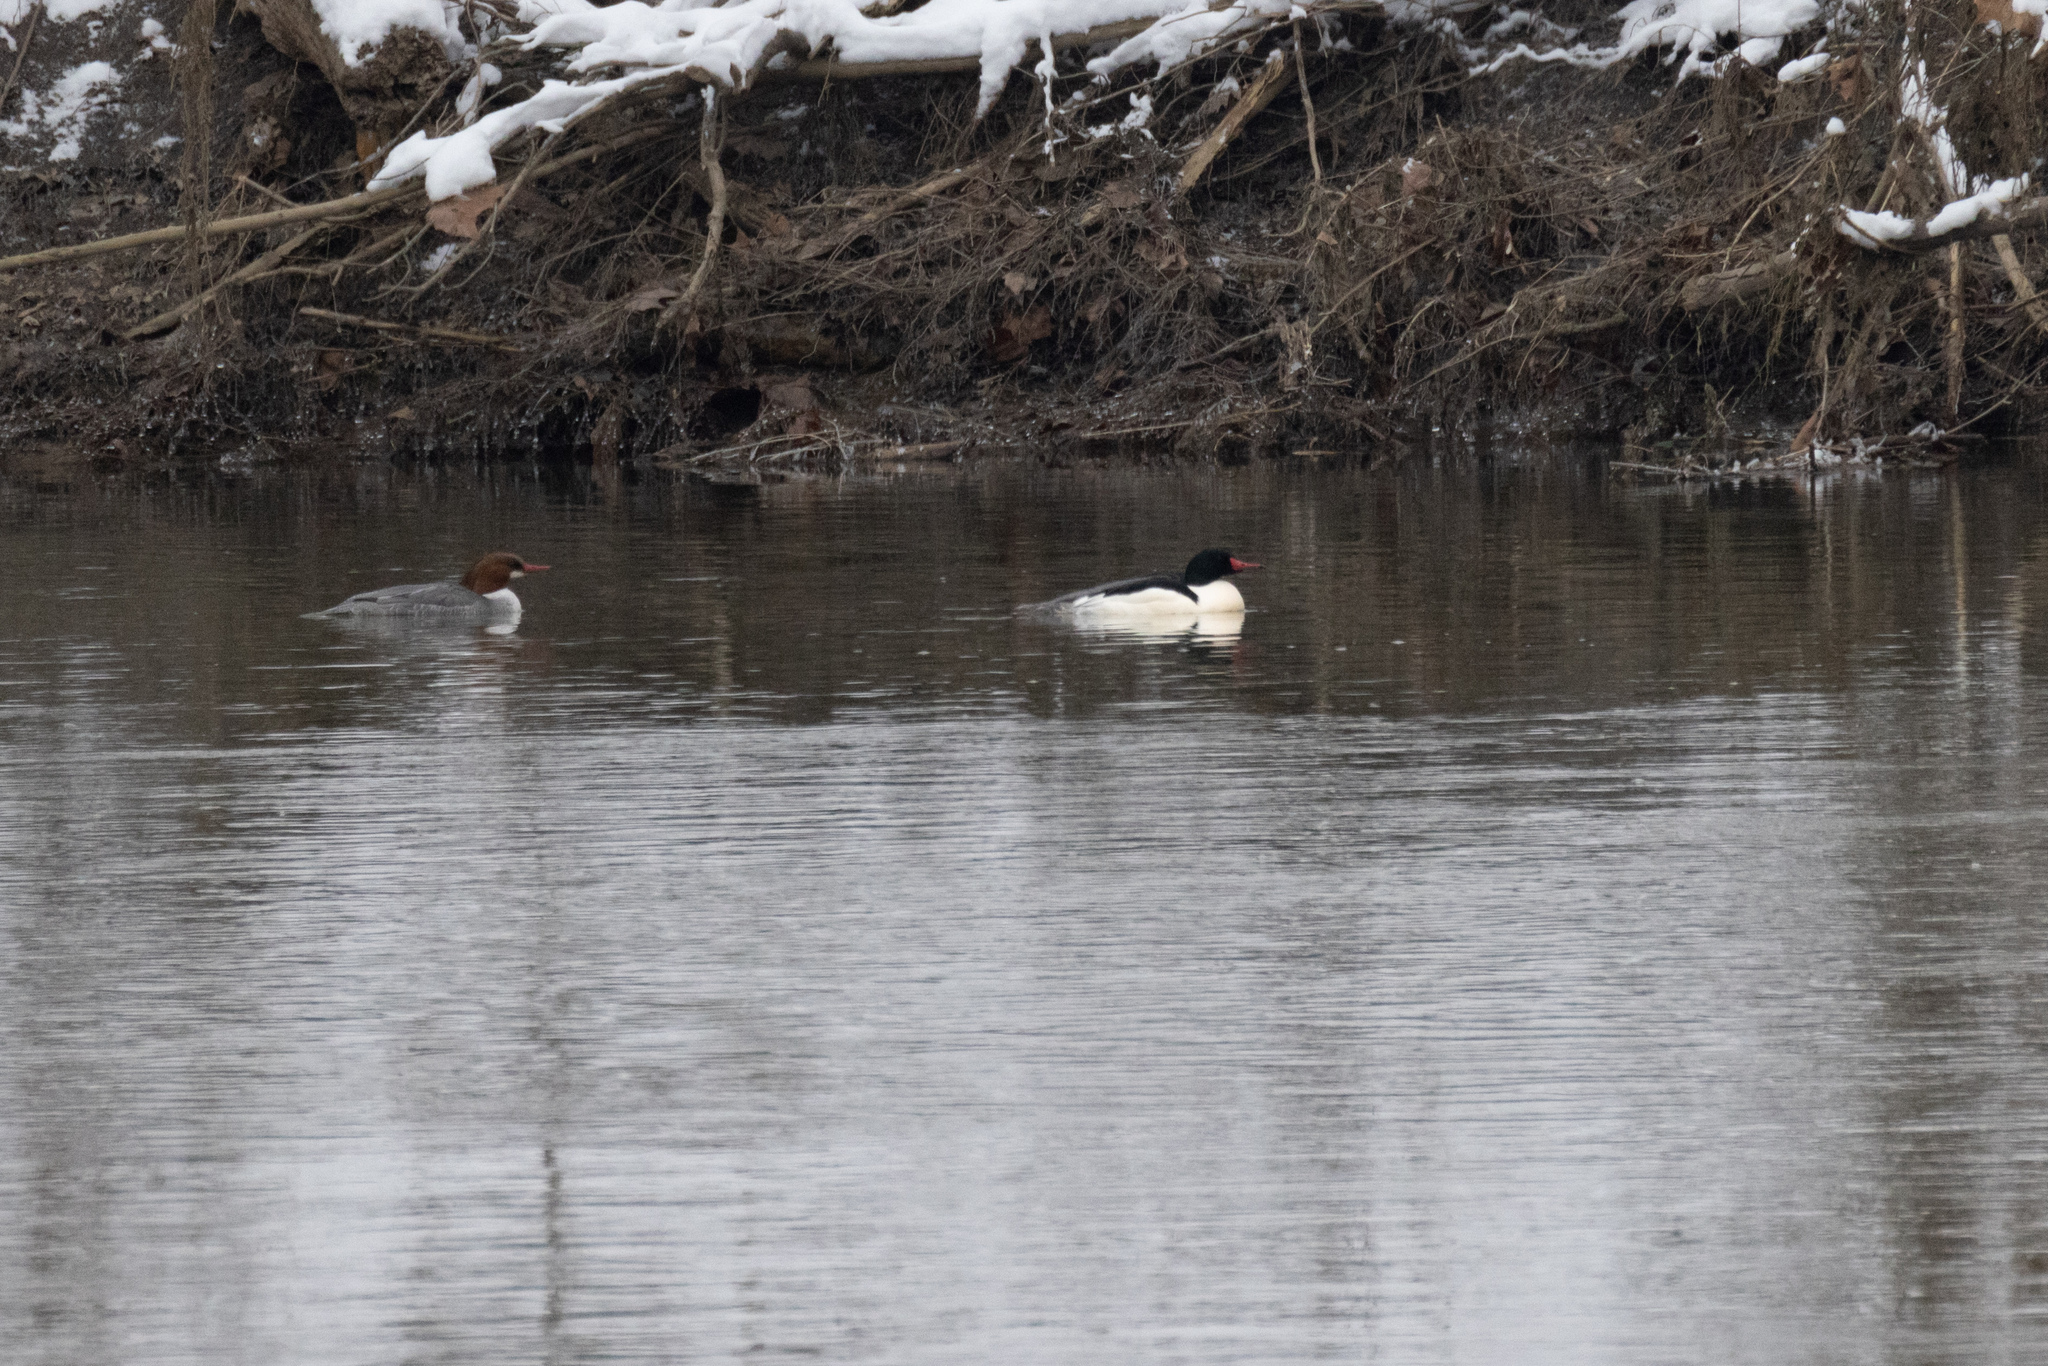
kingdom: Animalia
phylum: Chordata
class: Aves
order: Anseriformes
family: Anatidae
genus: Mergus
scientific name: Mergus merganser
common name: Common merganser
